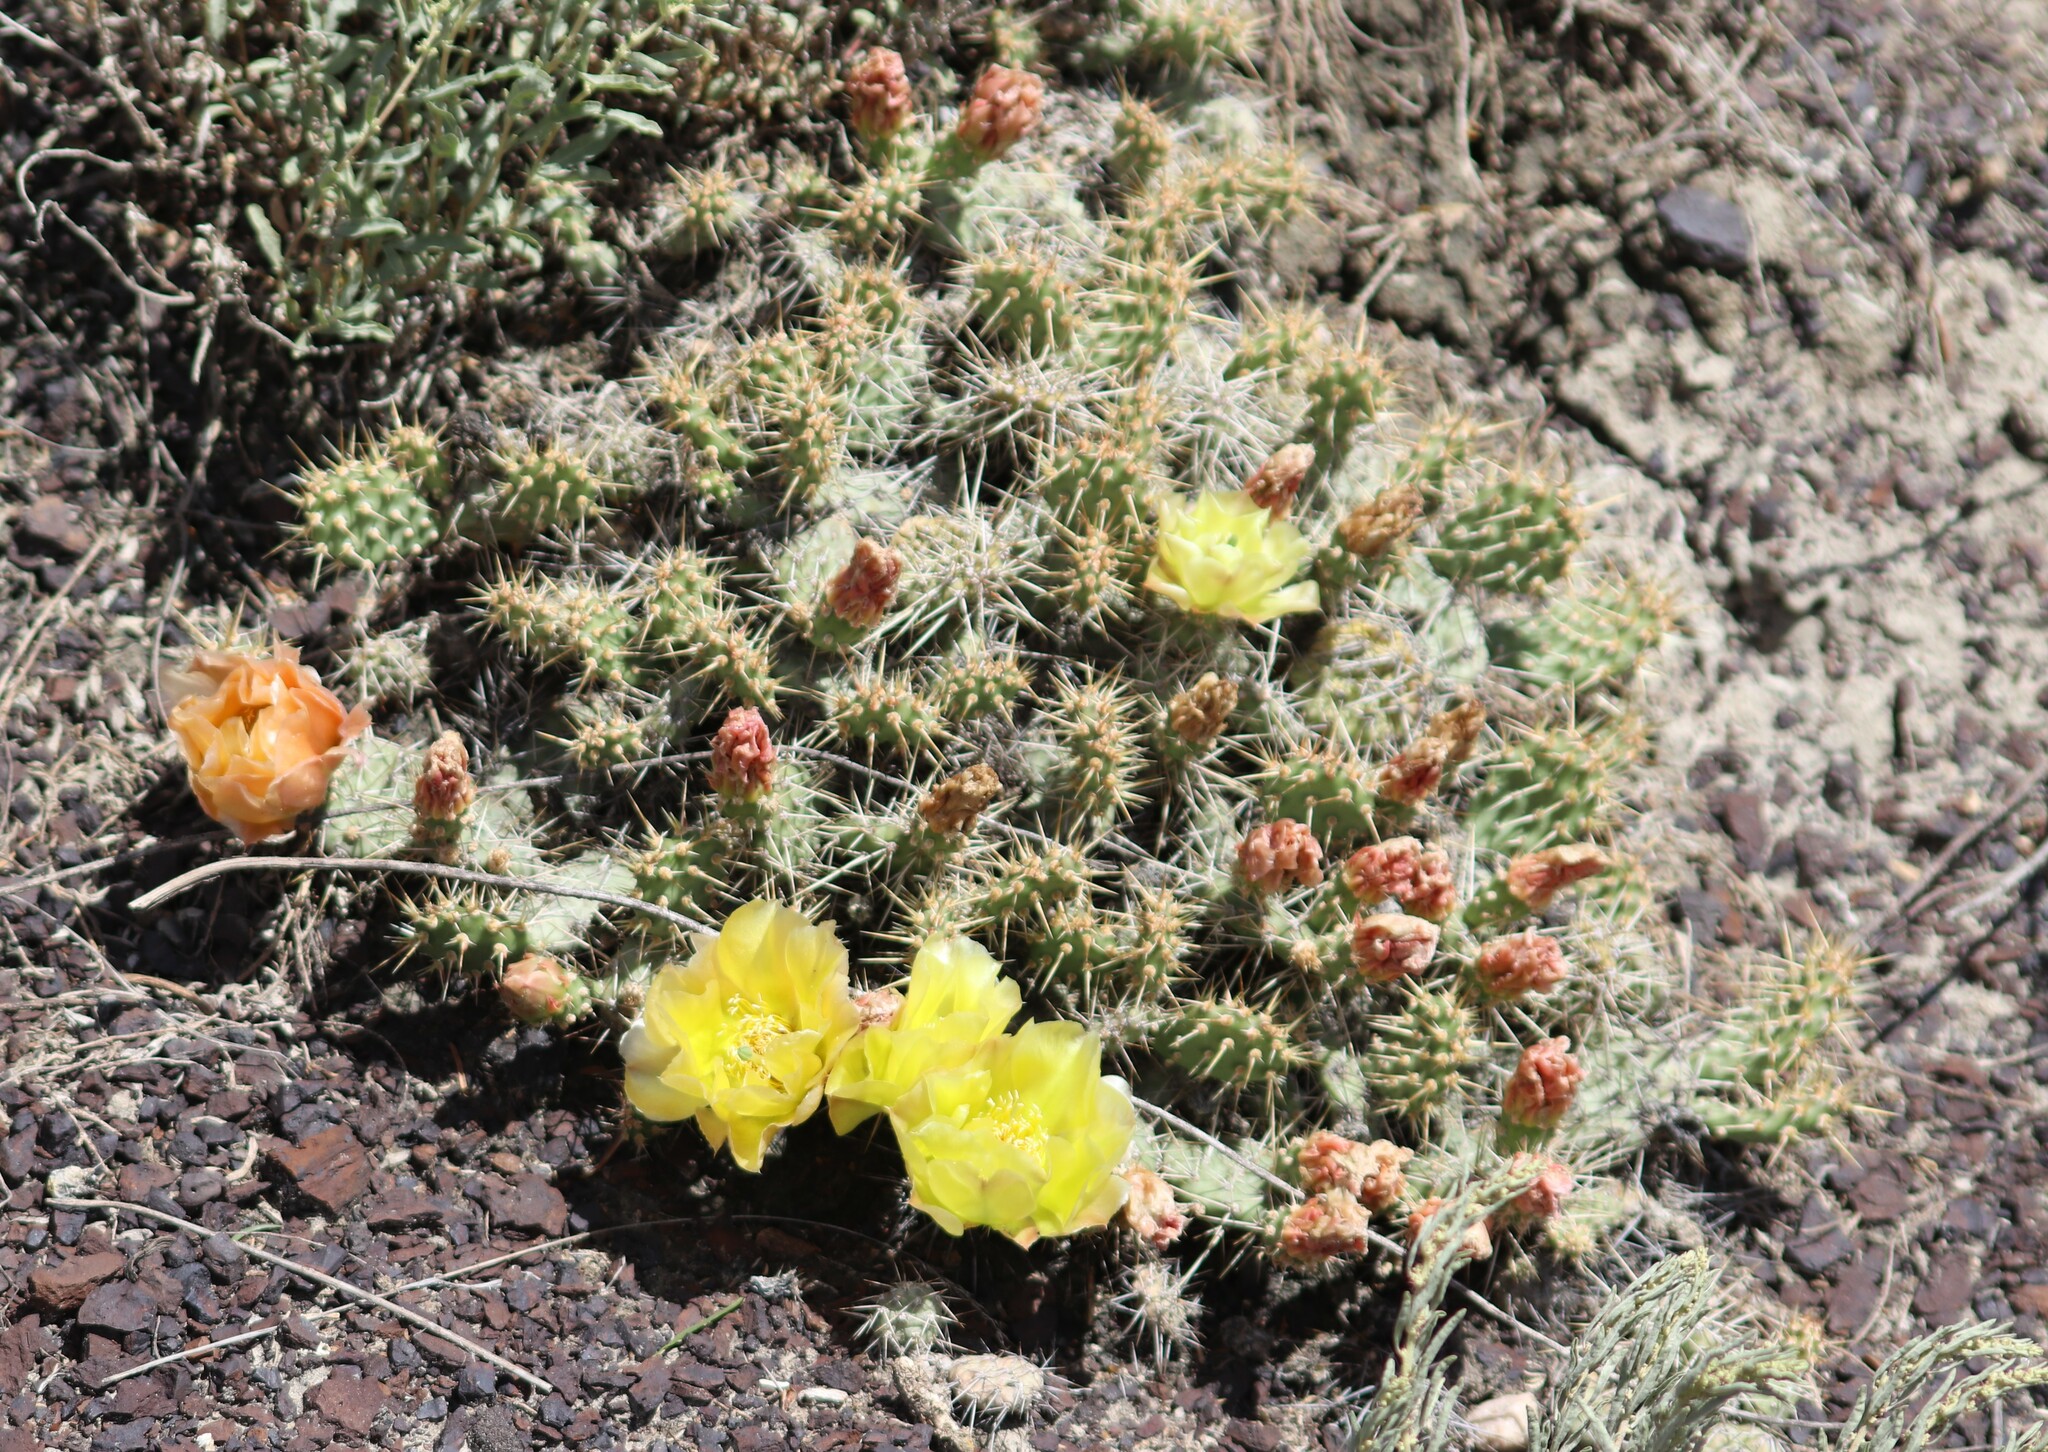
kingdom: Plantae
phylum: Tracheophyta
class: Magnoliopsida
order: Caryophyllales
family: Cactaceae
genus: Opuntia
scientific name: Opuntia fragilis
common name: Brittle cactus
